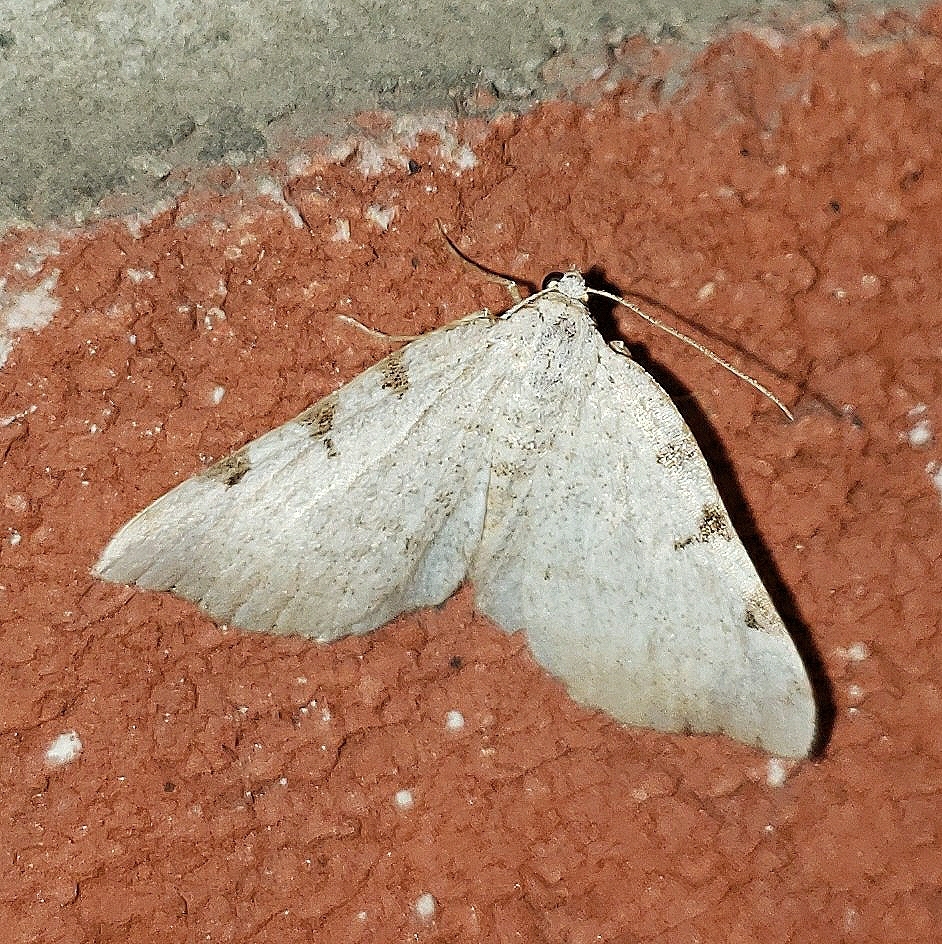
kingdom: Animalia
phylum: Arthropoda
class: Insecta
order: Lepidoptera
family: Geometridae
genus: Macaria
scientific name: Macaria coortaria
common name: Four-spotted granite
